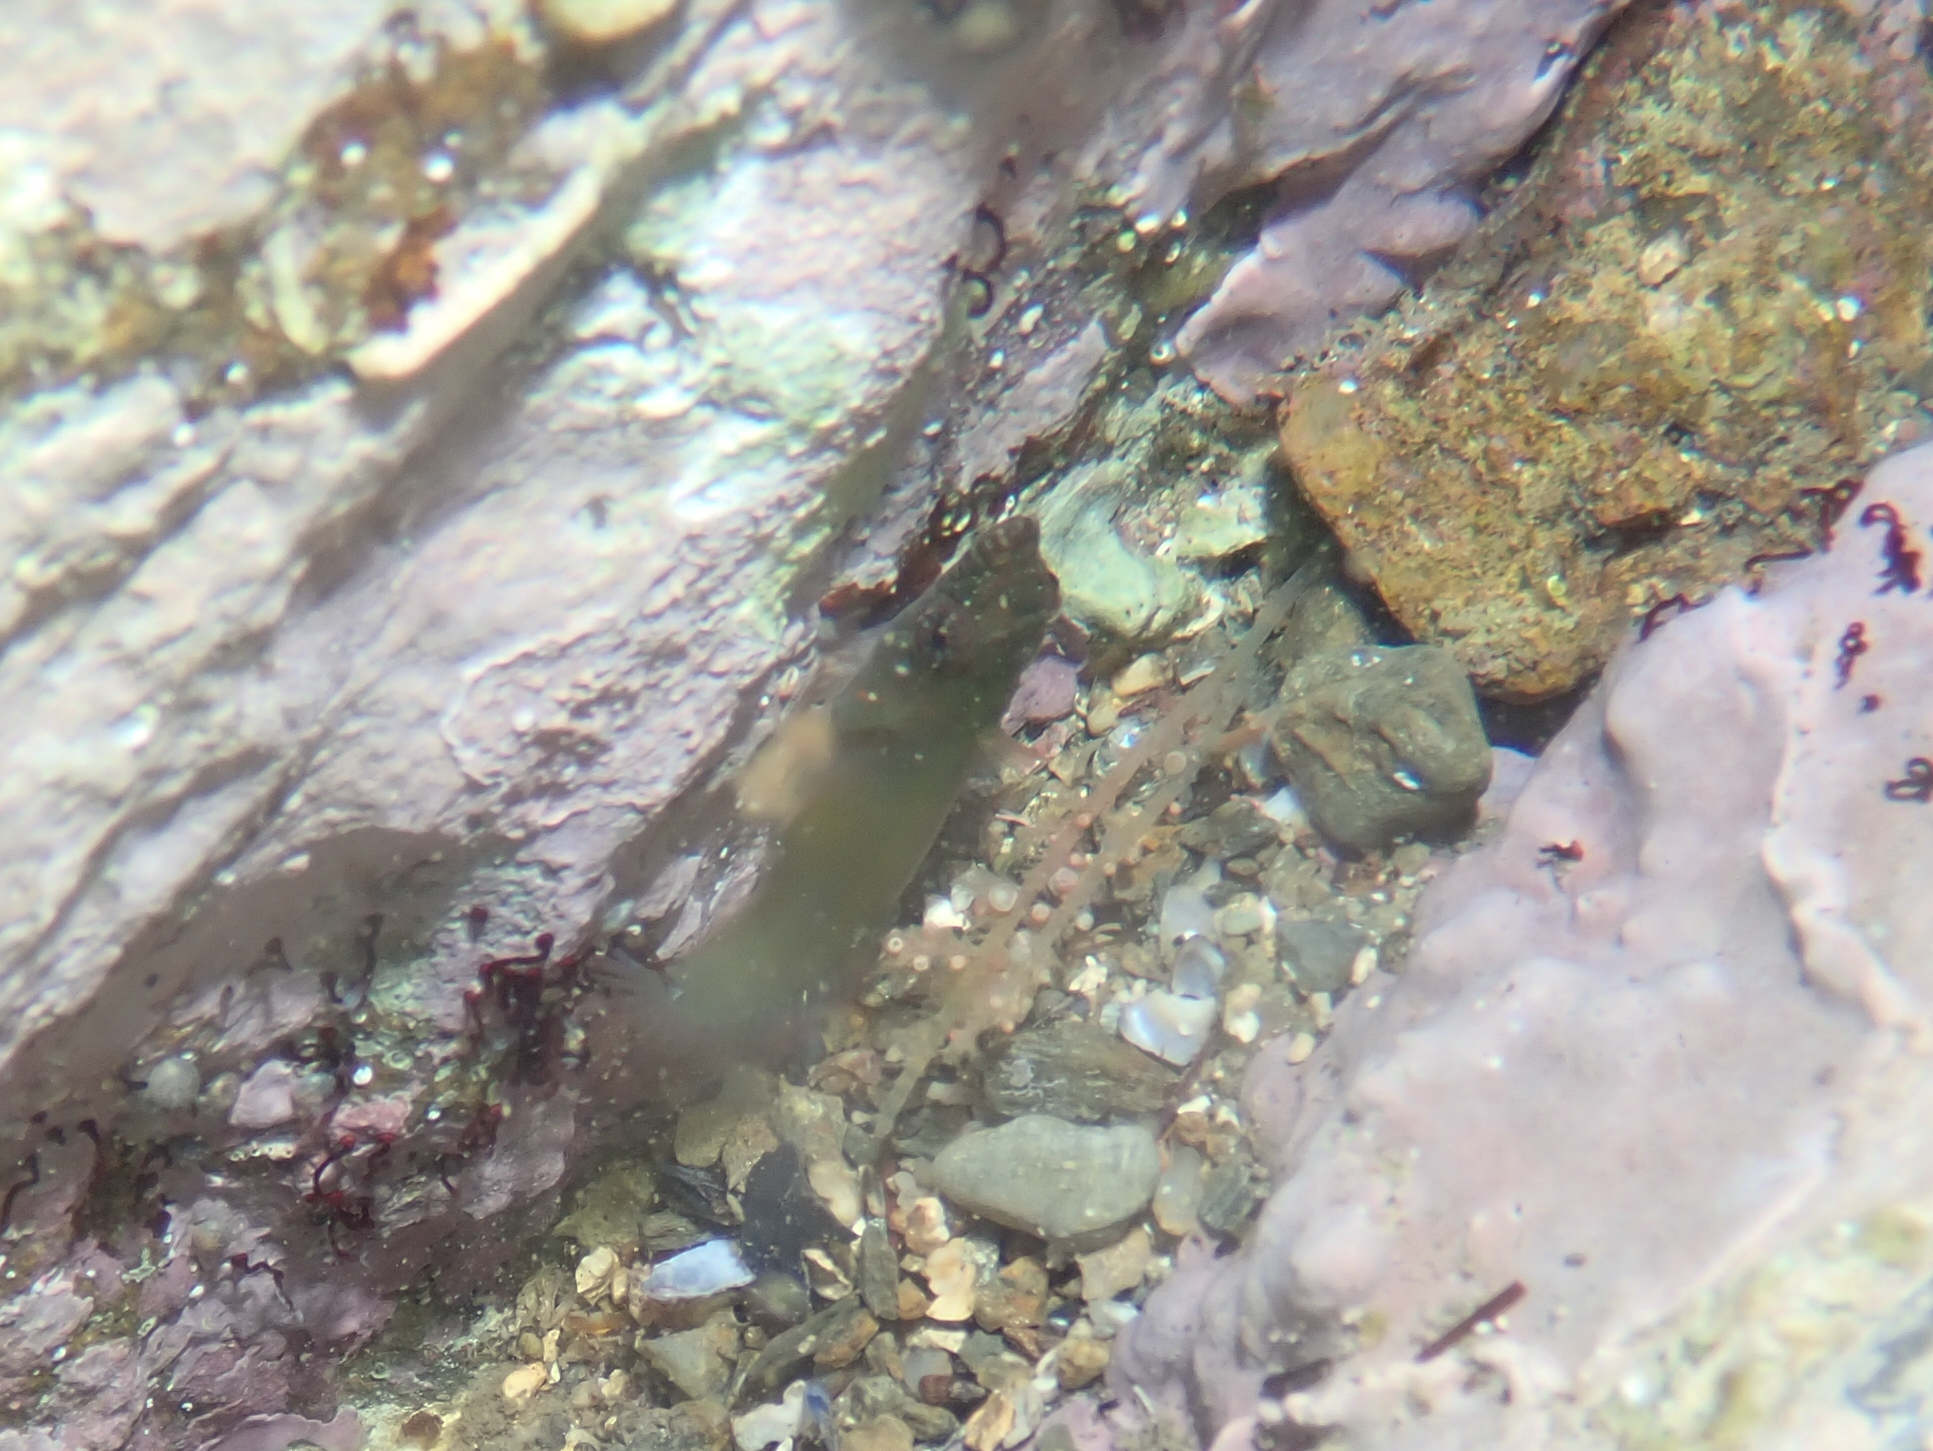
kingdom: Animalia
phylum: Chordata
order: Gobiesociformes
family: Gobiesocidae
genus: Lepadogaster
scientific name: Lepadogaster candolii
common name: Connemarra clingfish
